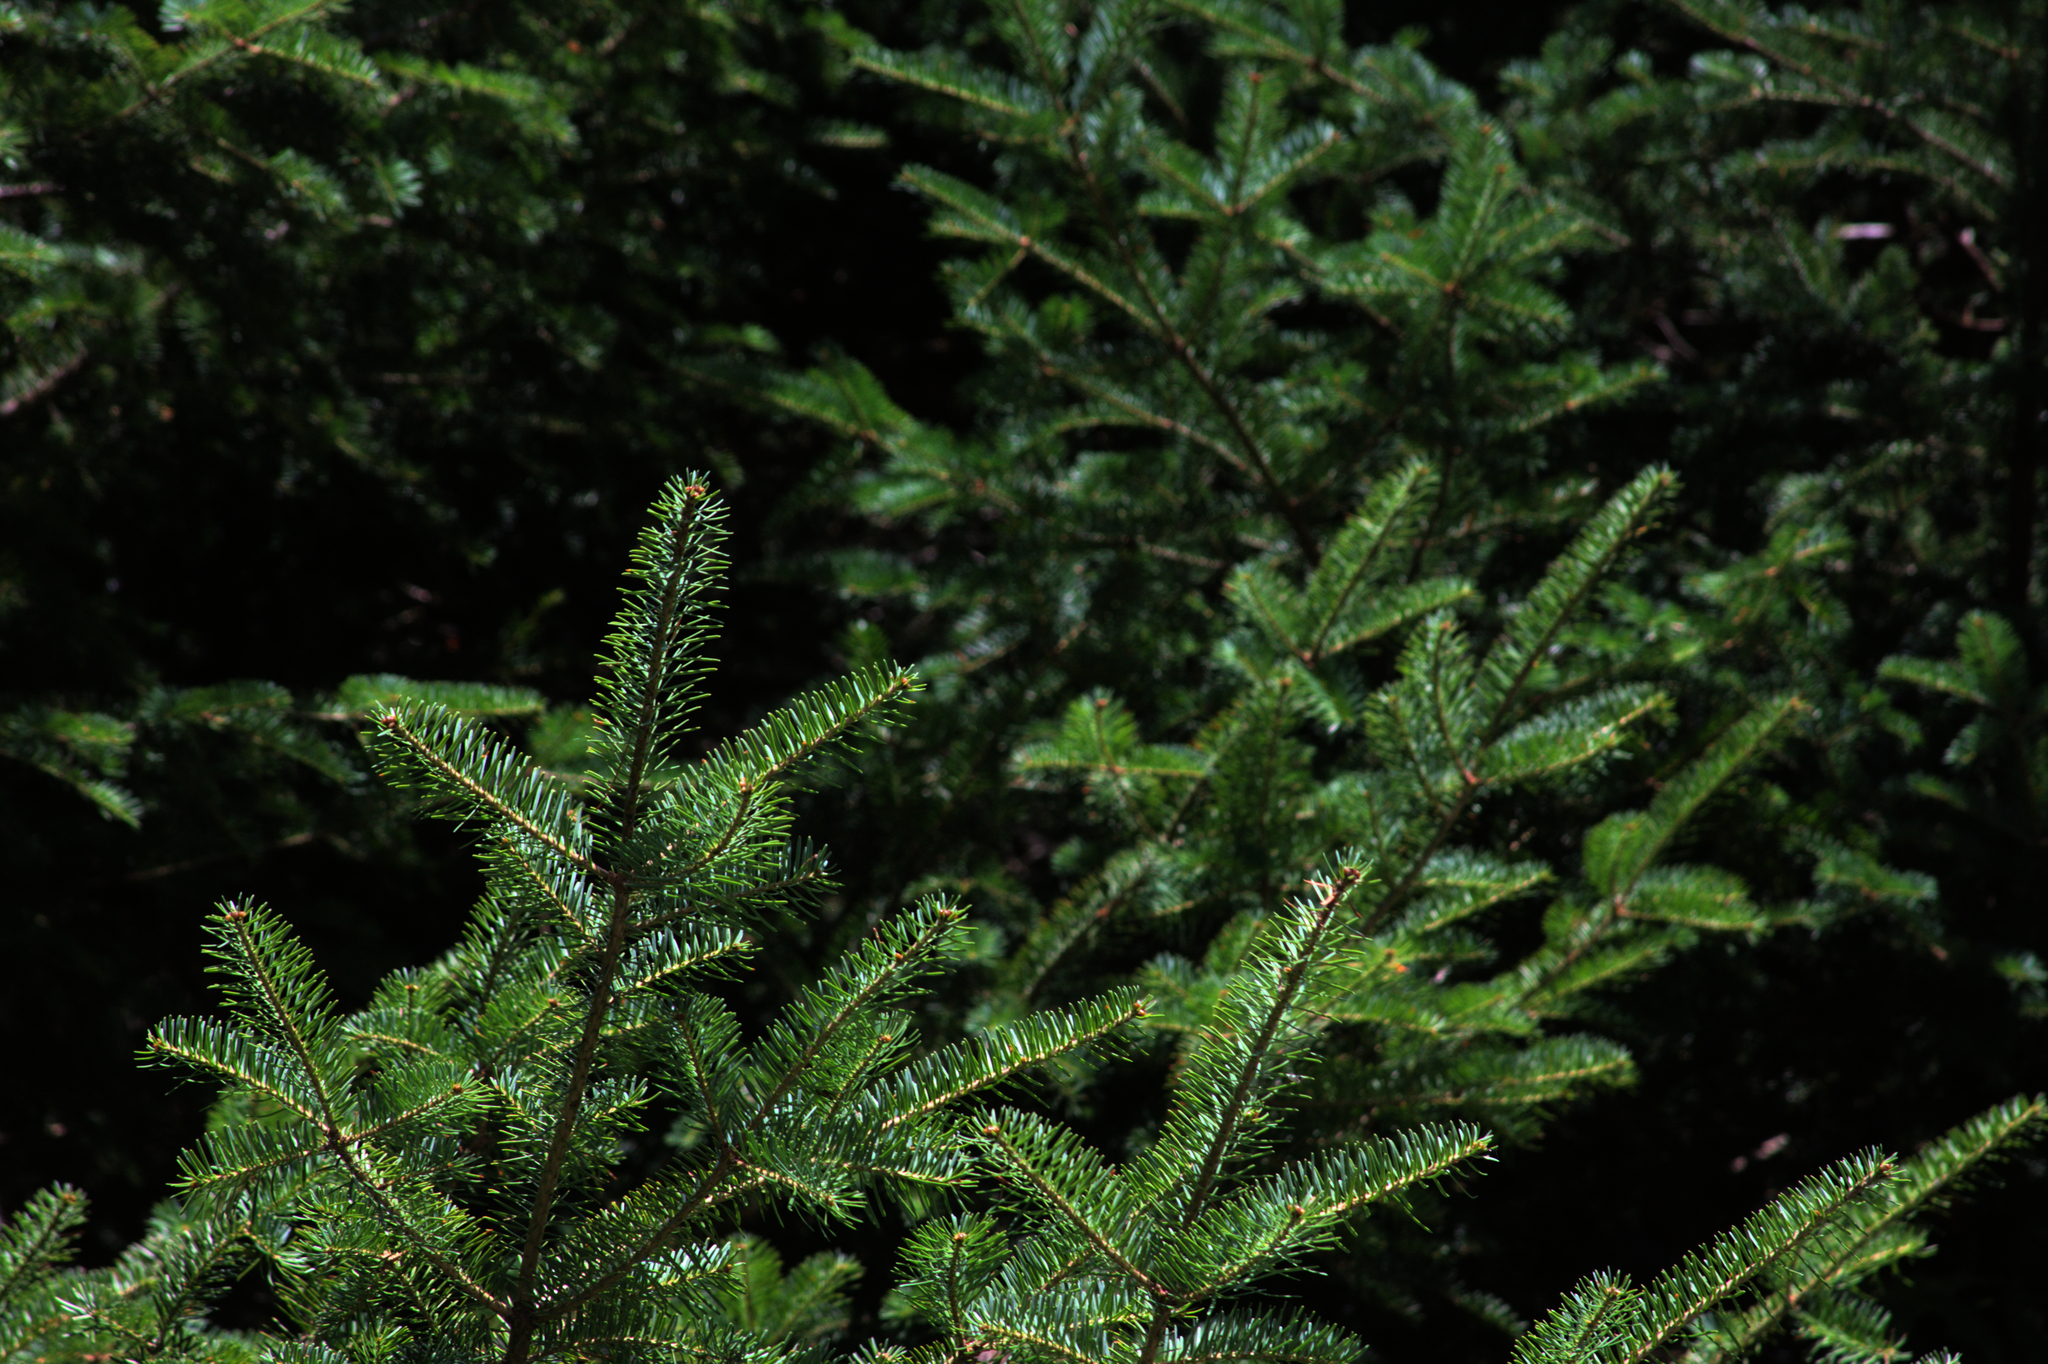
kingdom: Plantae
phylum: Tracheophyta
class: Pinopsida
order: Pinales
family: Pinaceae
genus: Abies
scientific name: Abies balsamea
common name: Balsam fir
